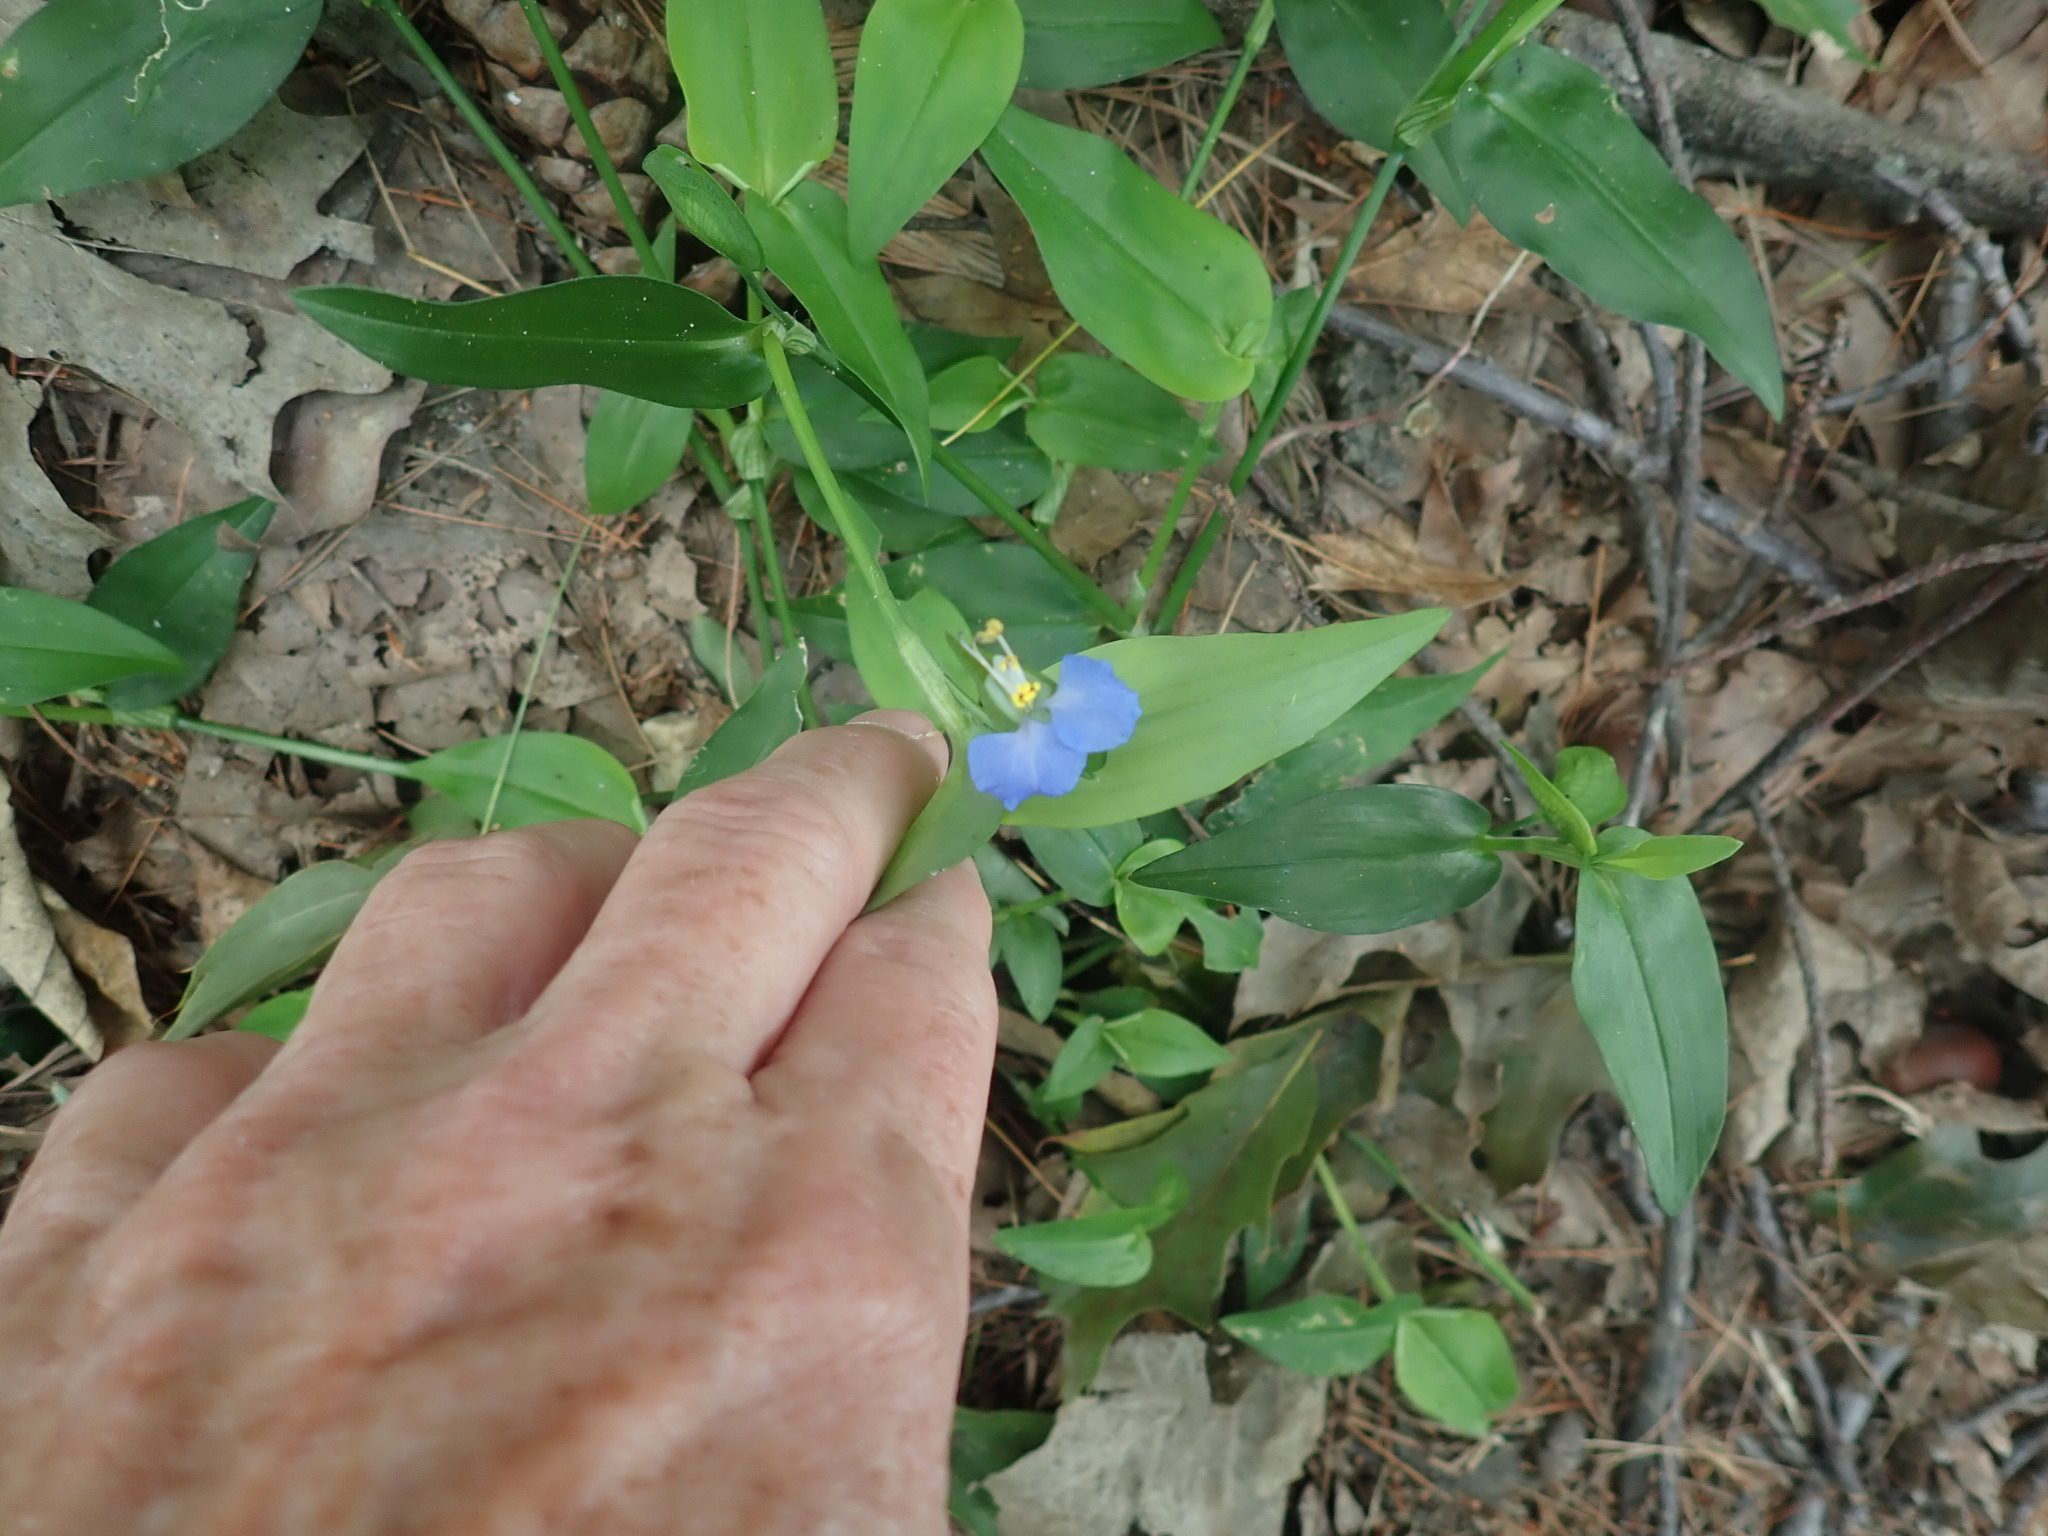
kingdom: Plantae
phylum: Tracheophyta
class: Liliopsida
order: Commelinales
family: Commelinaceae
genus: Commelina
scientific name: Commelina communis
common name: Asiatic dayflower
